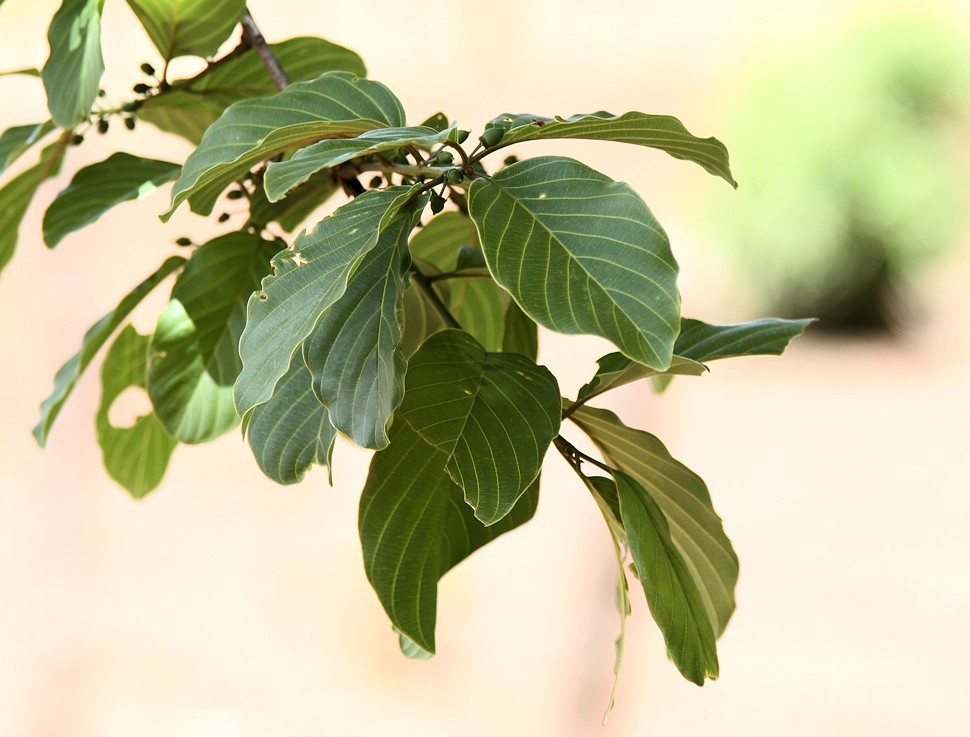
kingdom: Plantae
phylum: Tracheophyta
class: Magnoliopsida
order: Rosales
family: Rhamnaceae
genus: Phyllogeiton
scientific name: Phyllogeiton discolor
